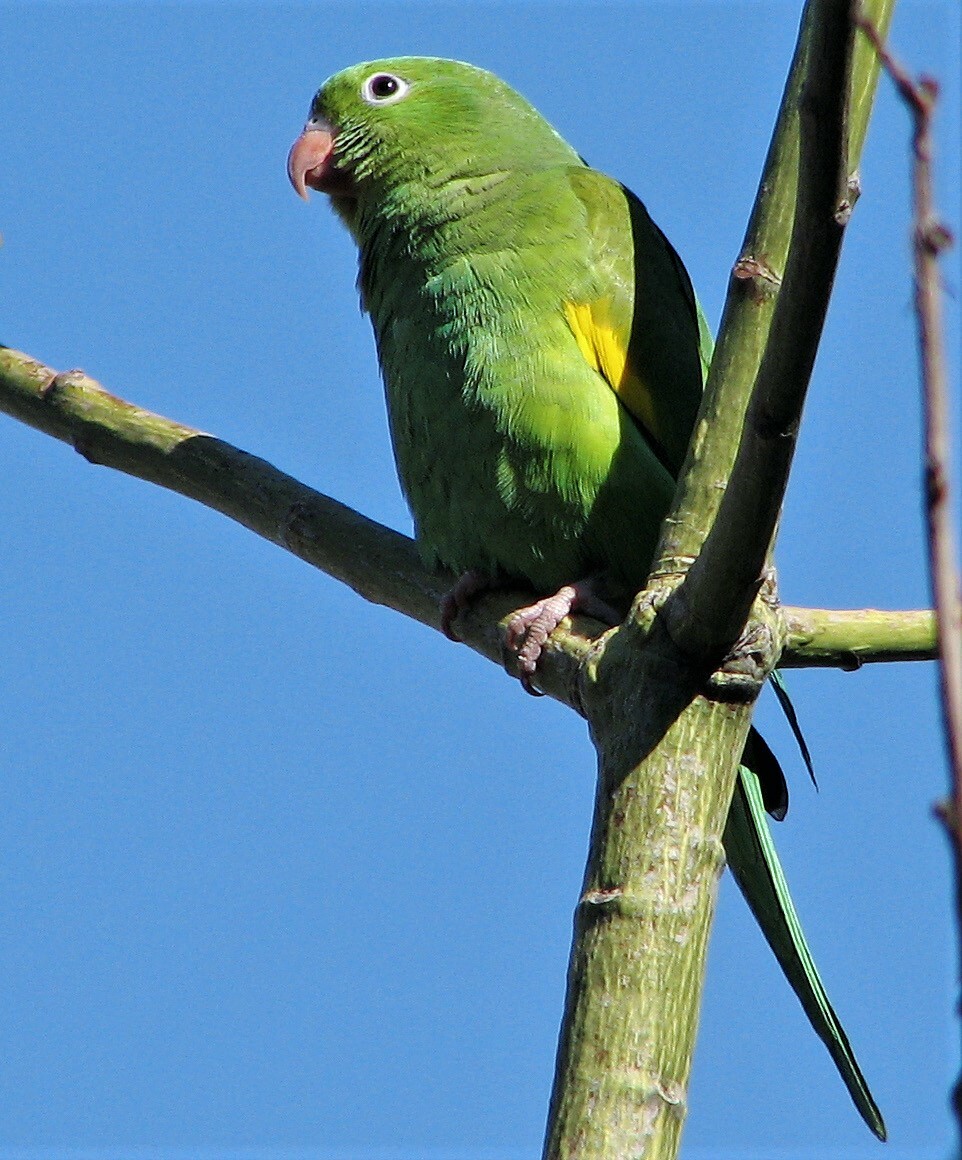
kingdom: Animalia
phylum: Chordata
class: Aves
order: Psittaciformes
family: Psittacidae
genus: Brotogeris
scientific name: Brotogeris chiriri
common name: Yellow-chevroned parakeet
